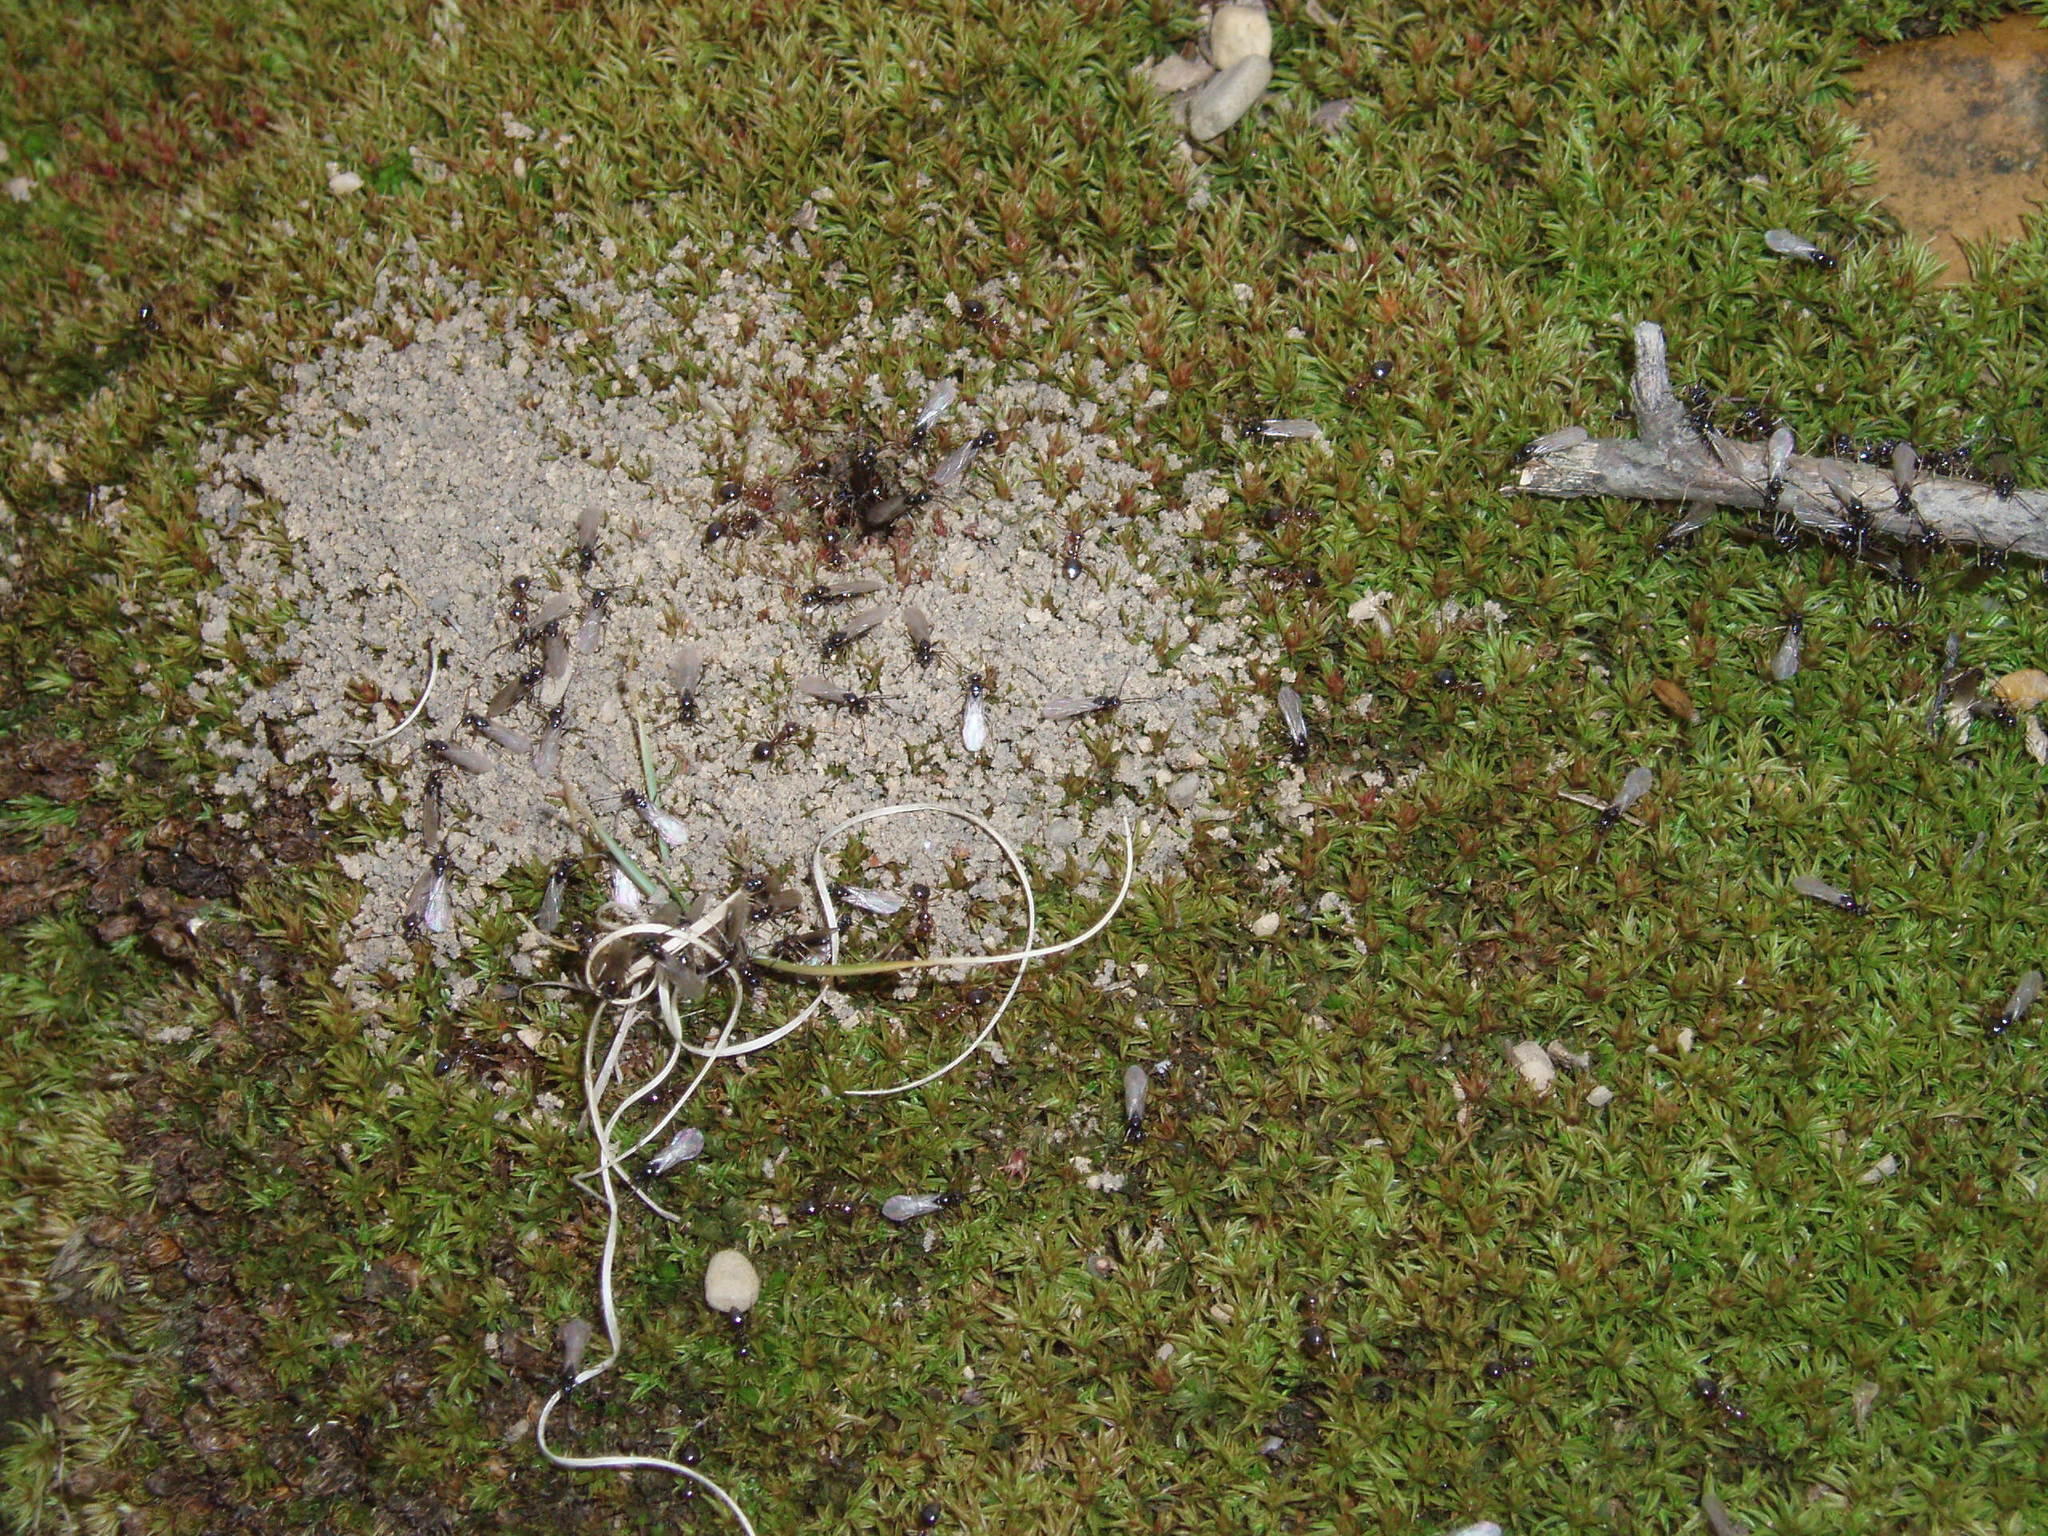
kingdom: Animalia
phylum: Arthropoda
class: Insecta
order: Hymenoptera
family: Formicidae
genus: Prenolepis
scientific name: Prenolepis imparis
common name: Small honey ant
